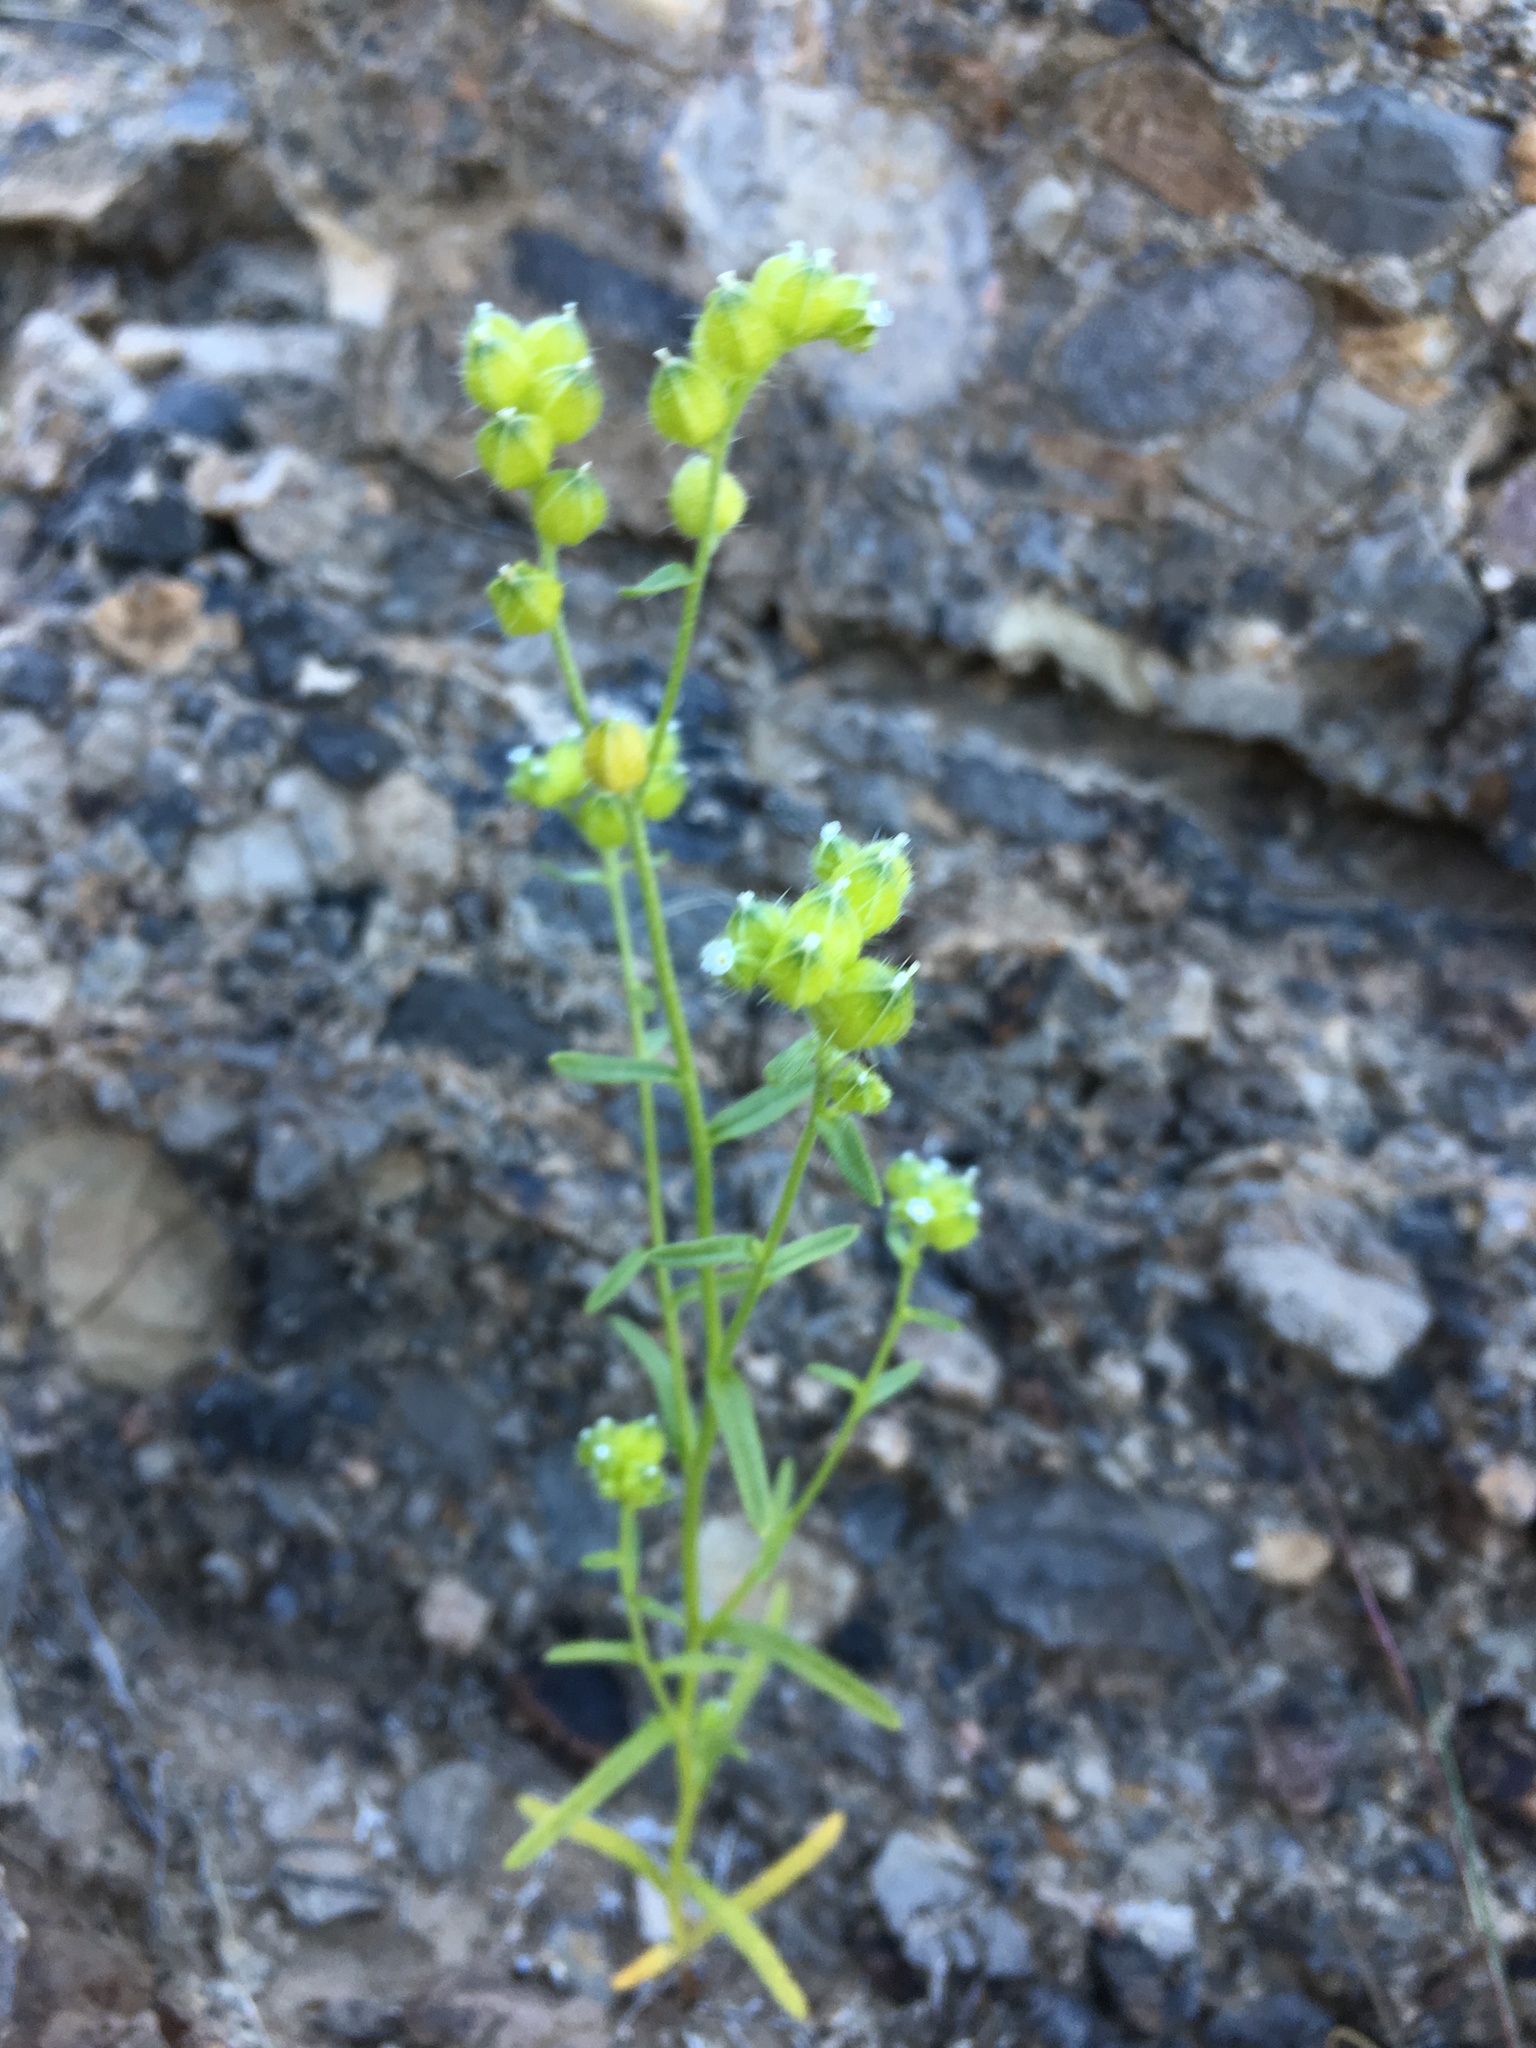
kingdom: Plantae
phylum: Tracheophyta
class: Magnoliopsida
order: Boraginales
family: Boraginaceae
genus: Cryptantha
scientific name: Cryptantha pterocarya
